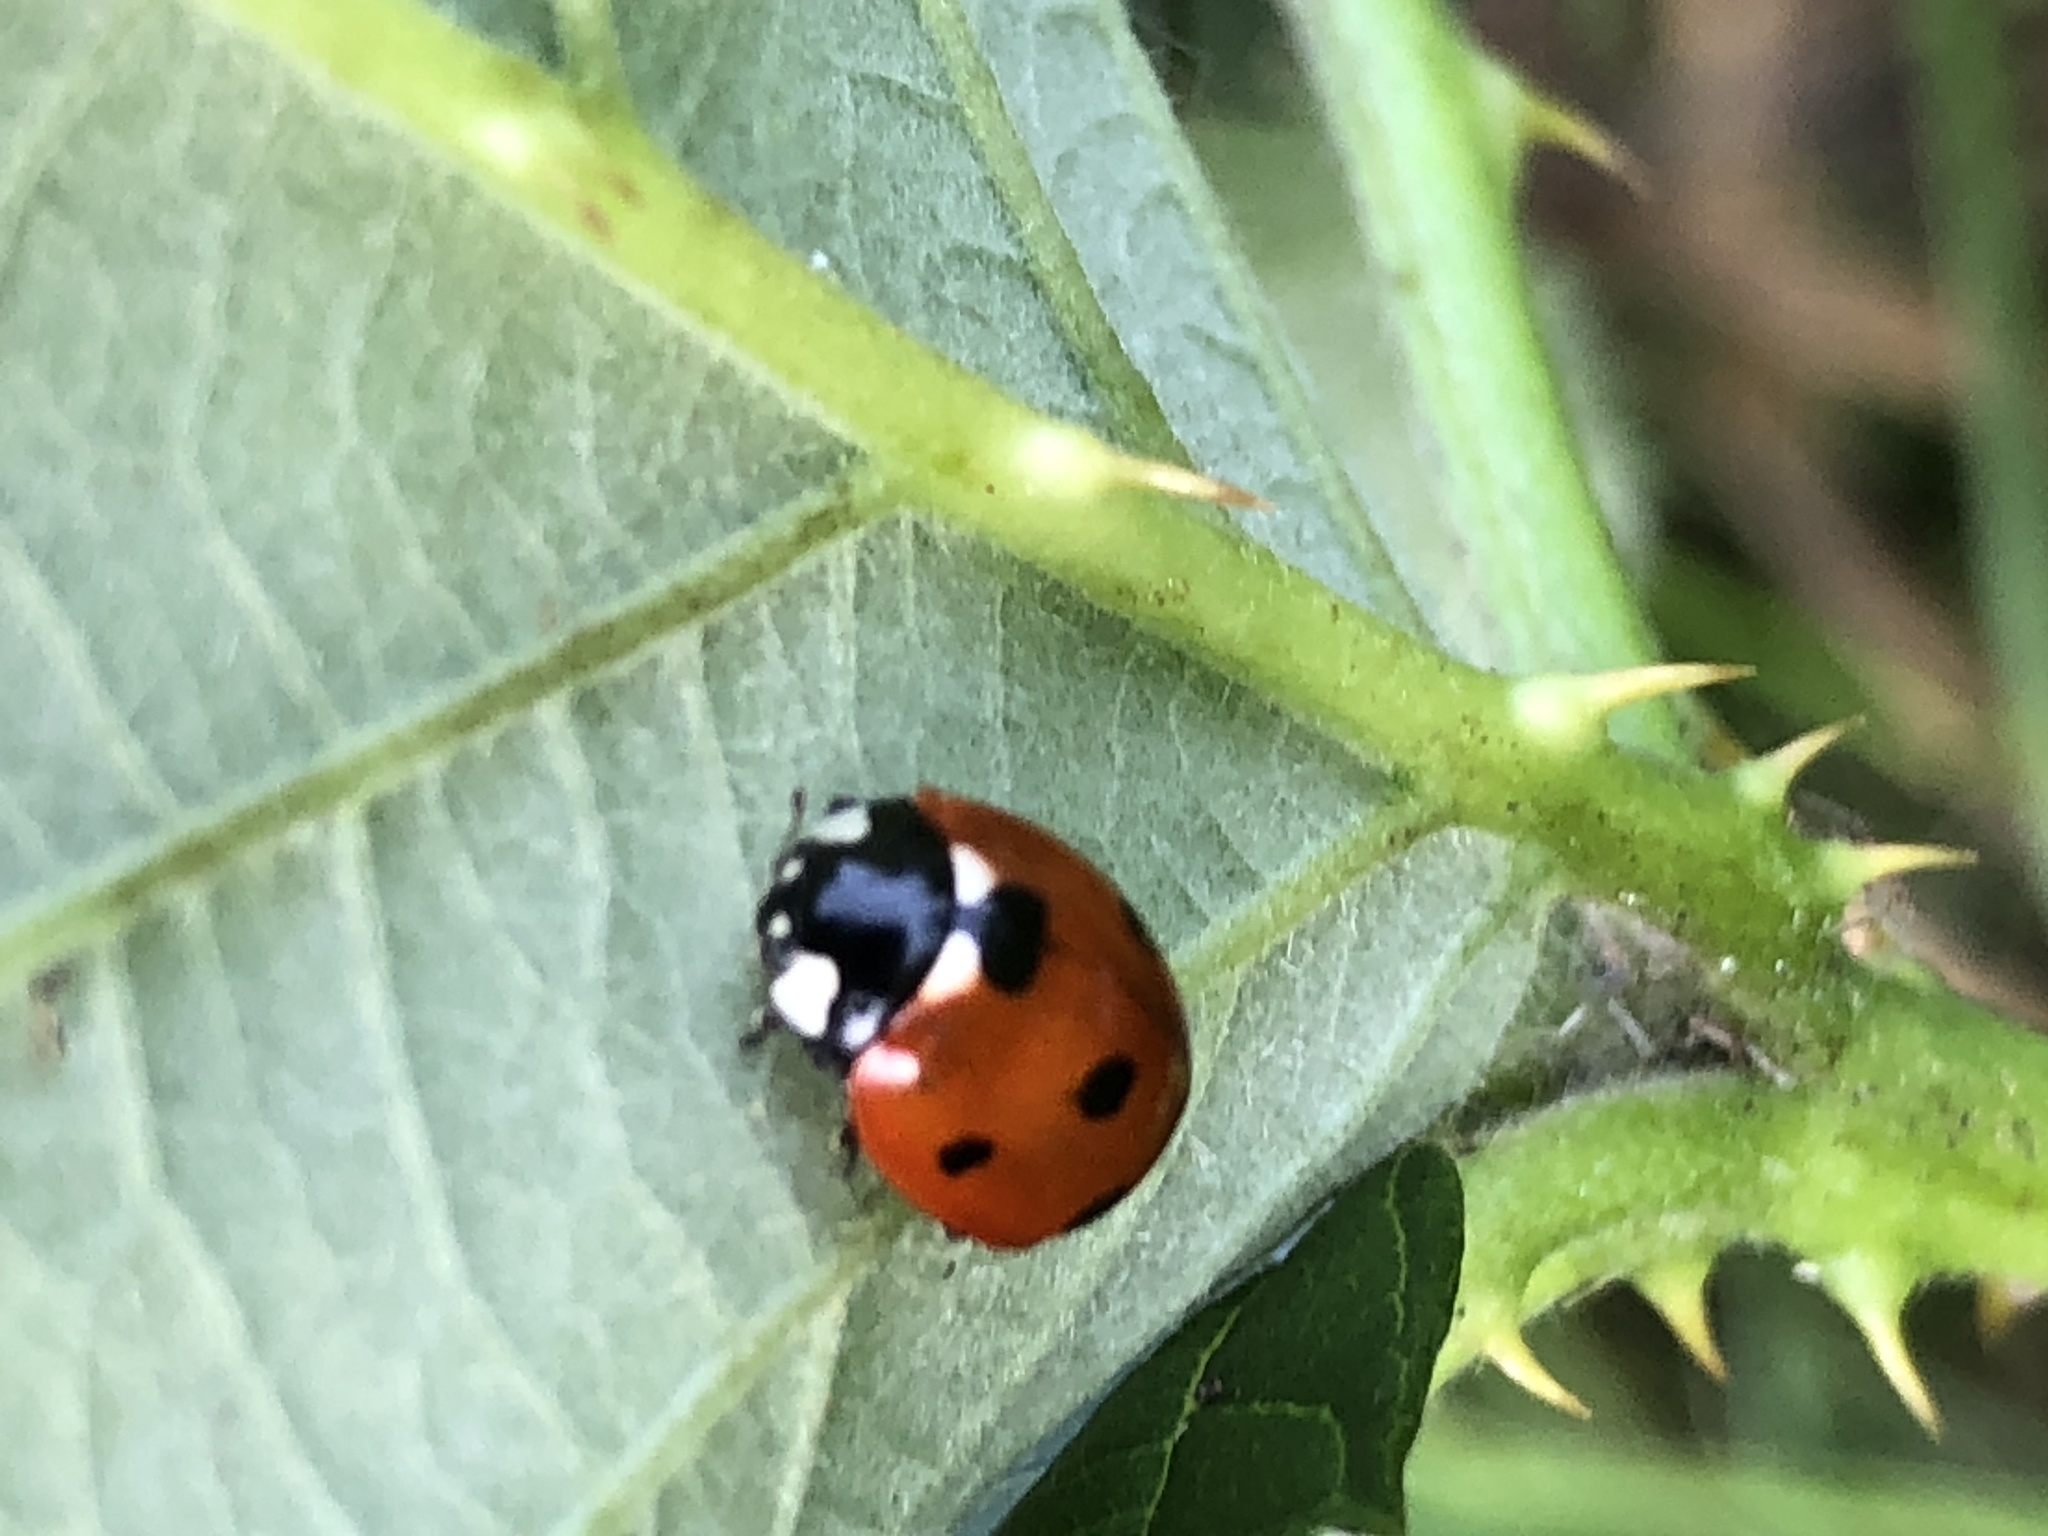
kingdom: Animalia
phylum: Arthropoda
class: Insecta
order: Coleoptera
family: Coccinellidae
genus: Coccinella
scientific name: Coccinella septempunctata
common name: Sevenspotted lady beetle
